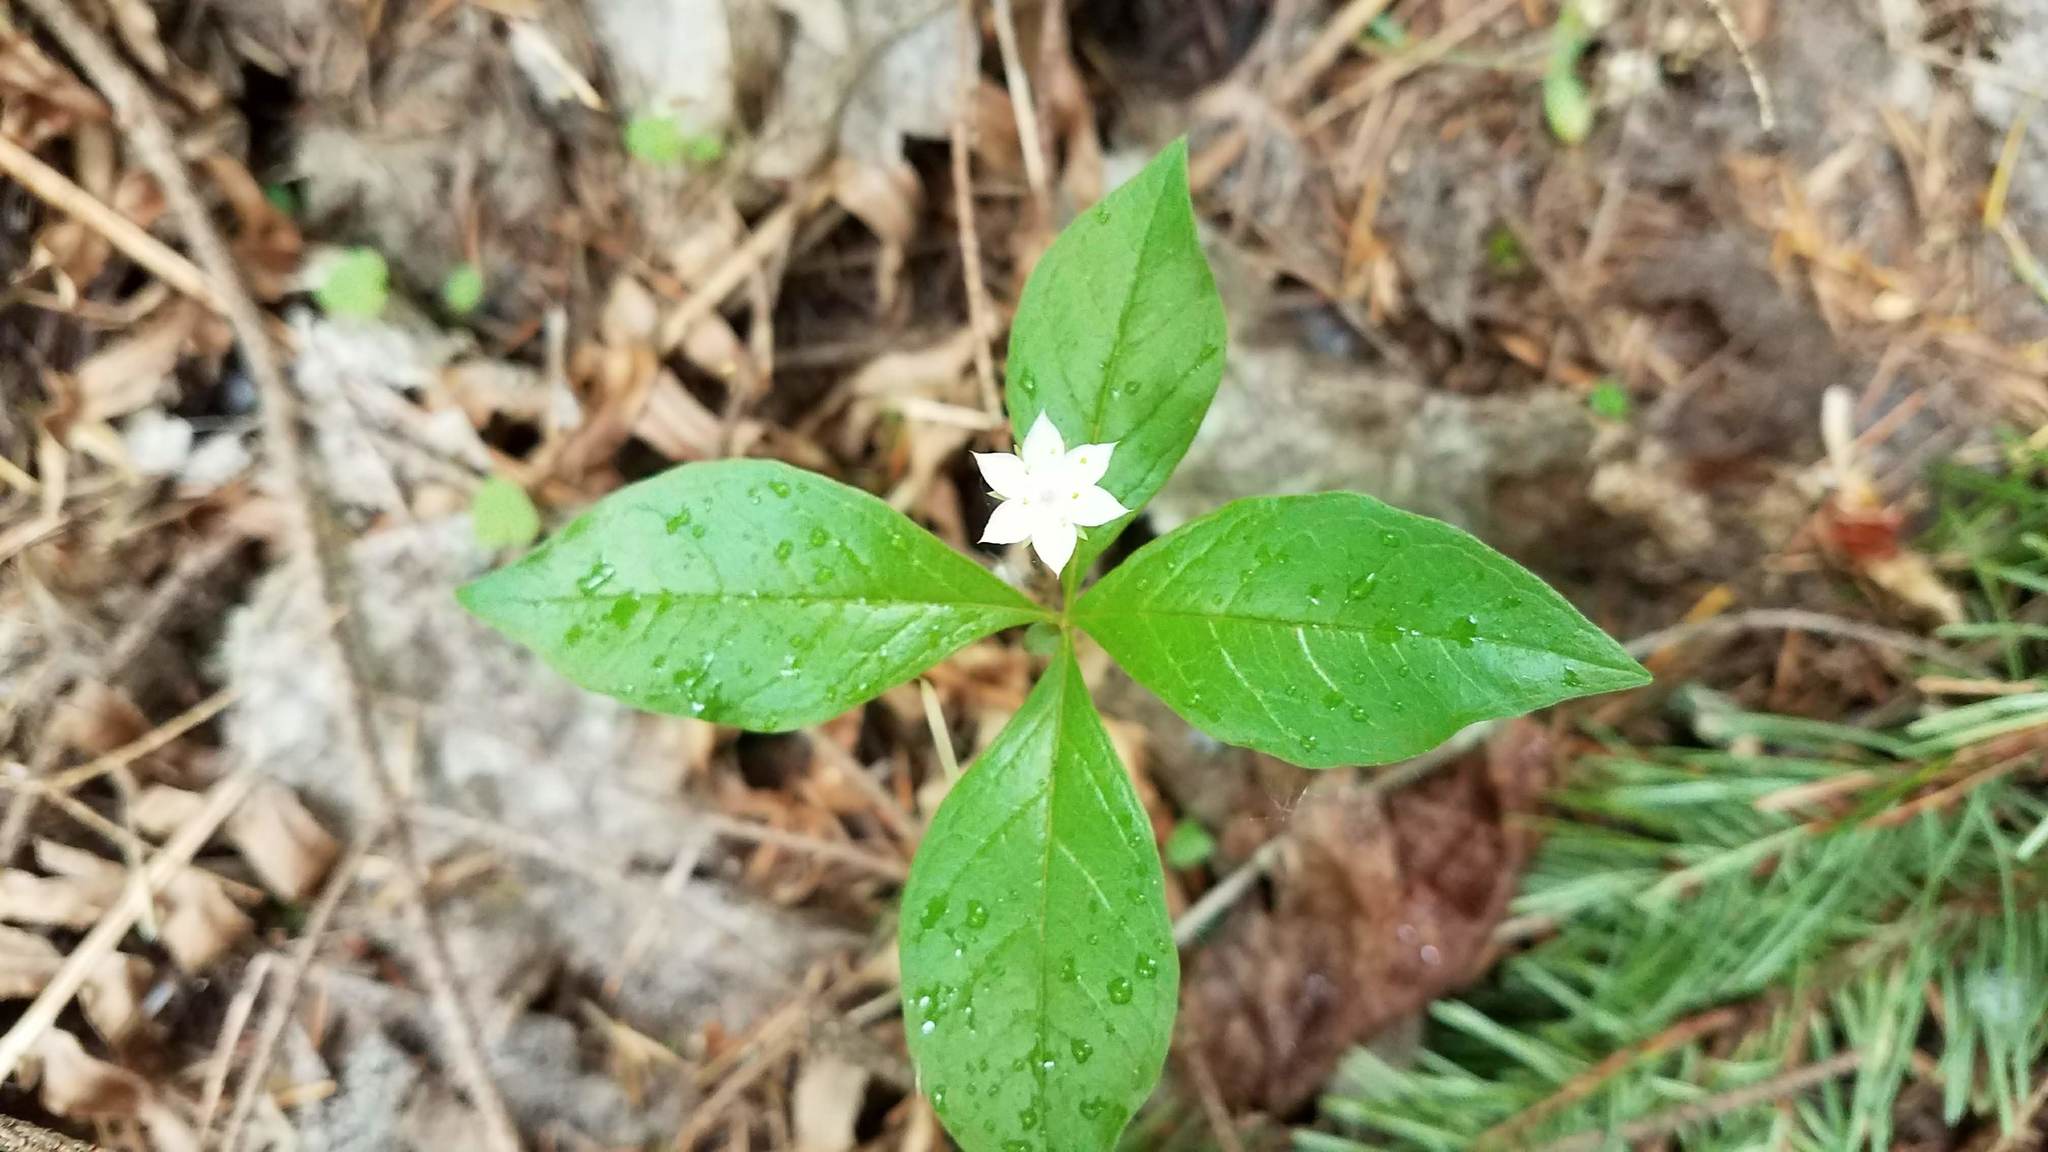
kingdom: Plantae
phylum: Tracheophyta
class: Magnoliopsida
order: Ericales
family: Primulaceae
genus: Lysimachia
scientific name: Lysimachia latifolia
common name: Pacific starflower
